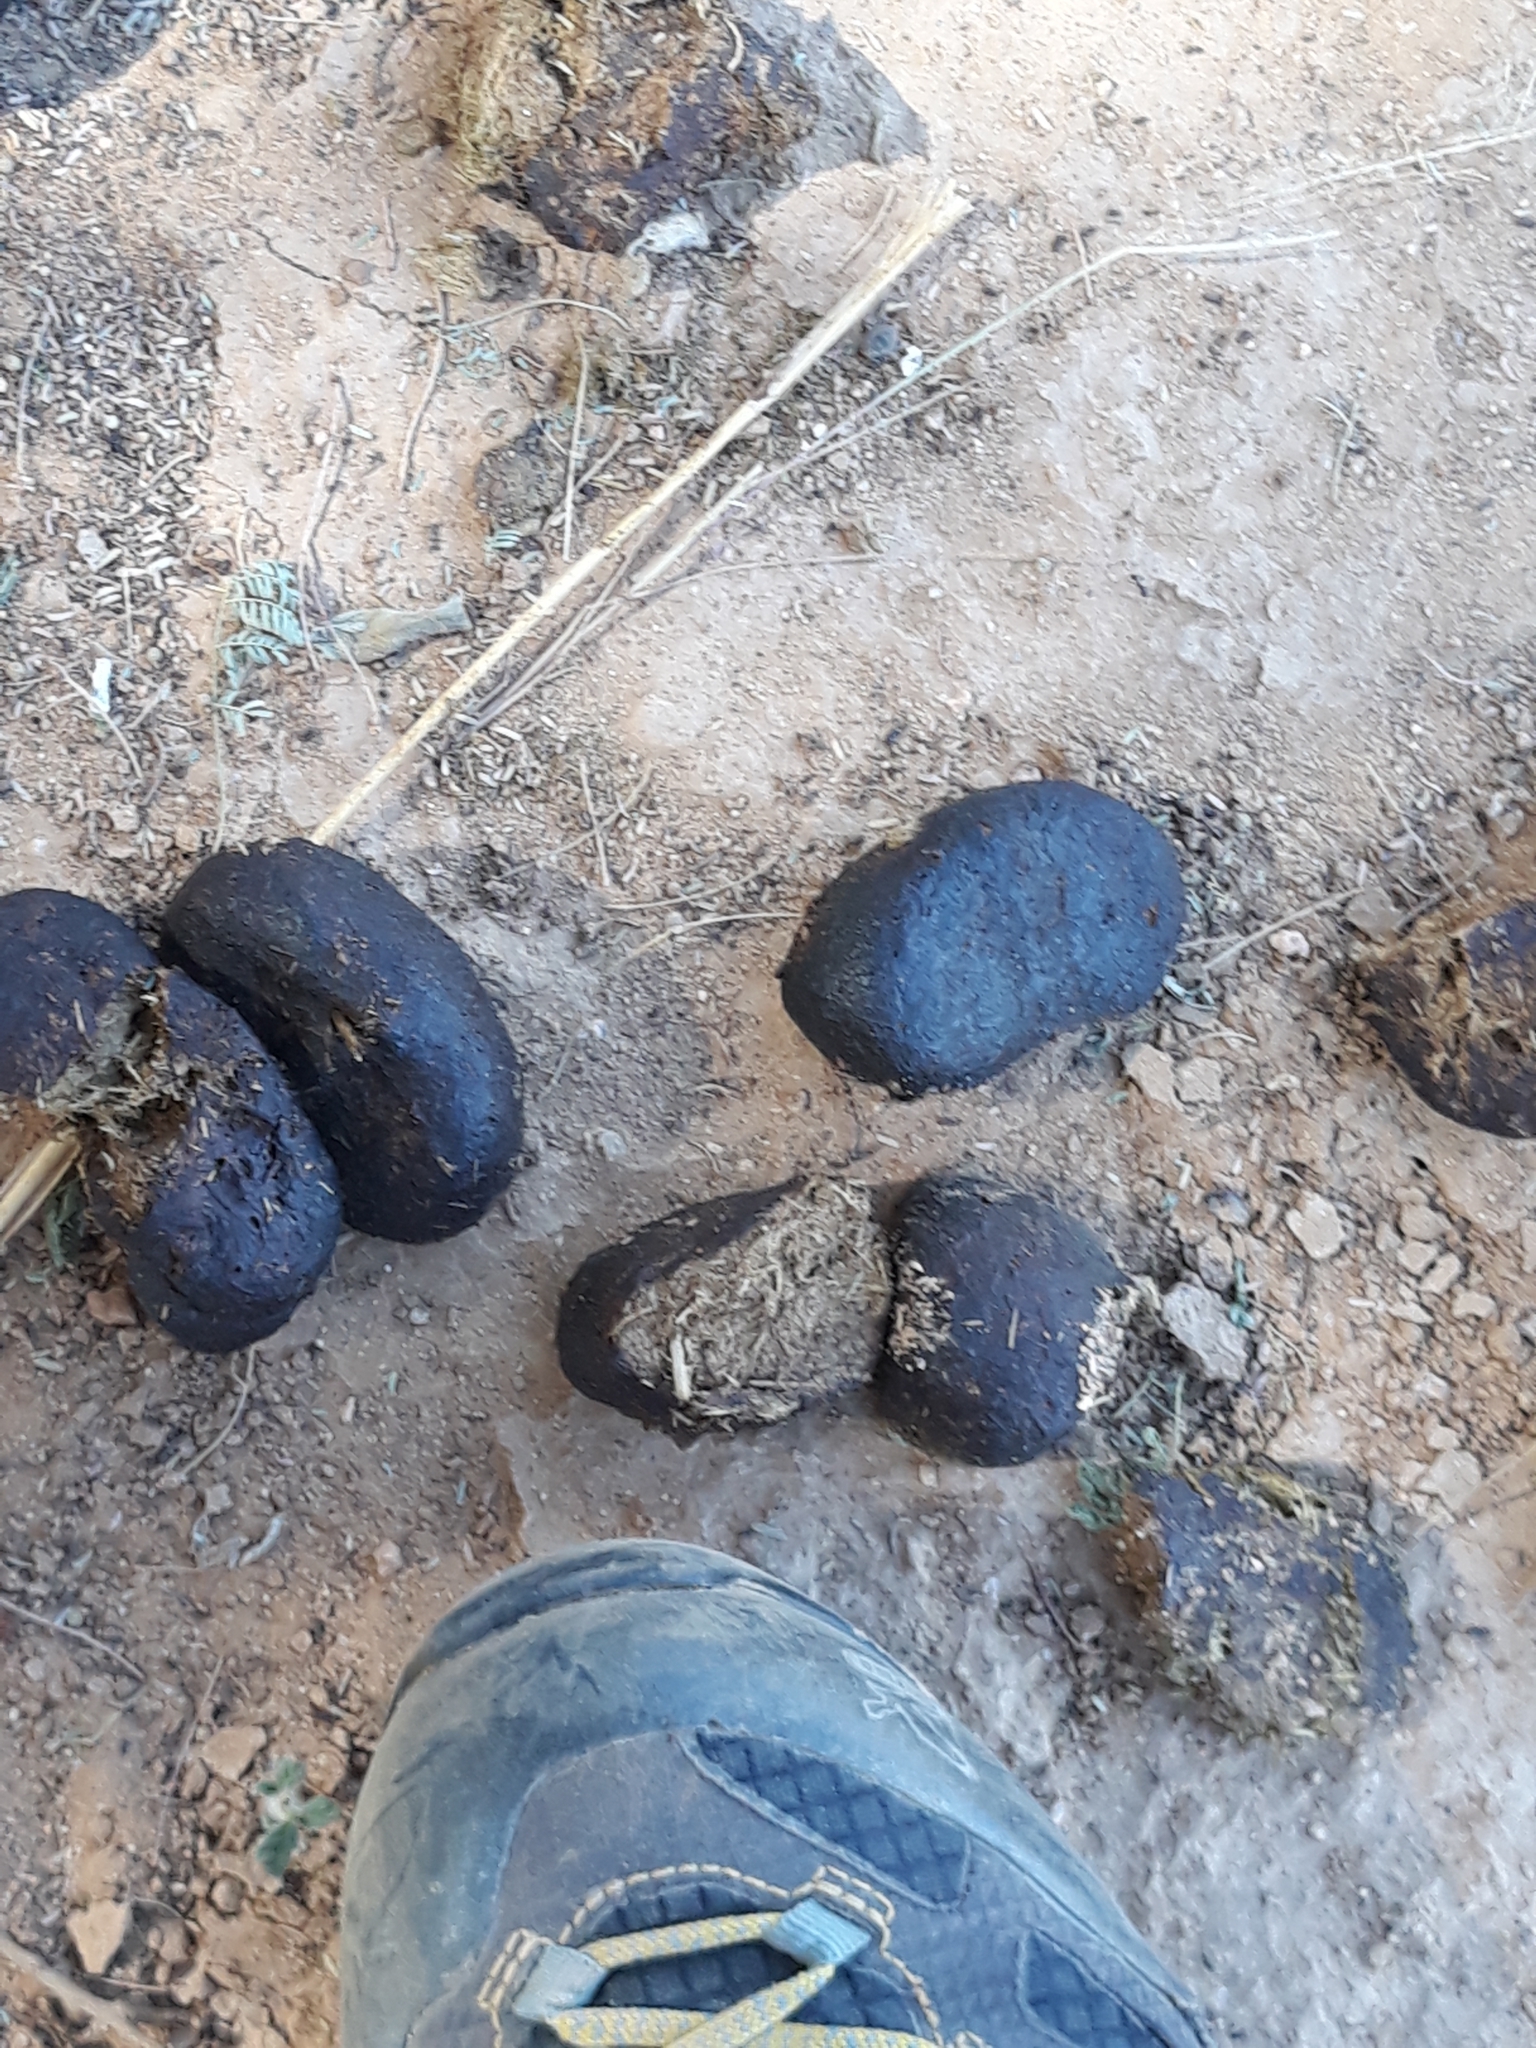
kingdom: Animalia
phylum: Chordata
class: Mammalia
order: Perissodactyla
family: Equidae
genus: Equus
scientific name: Equus asinus
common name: Ass
